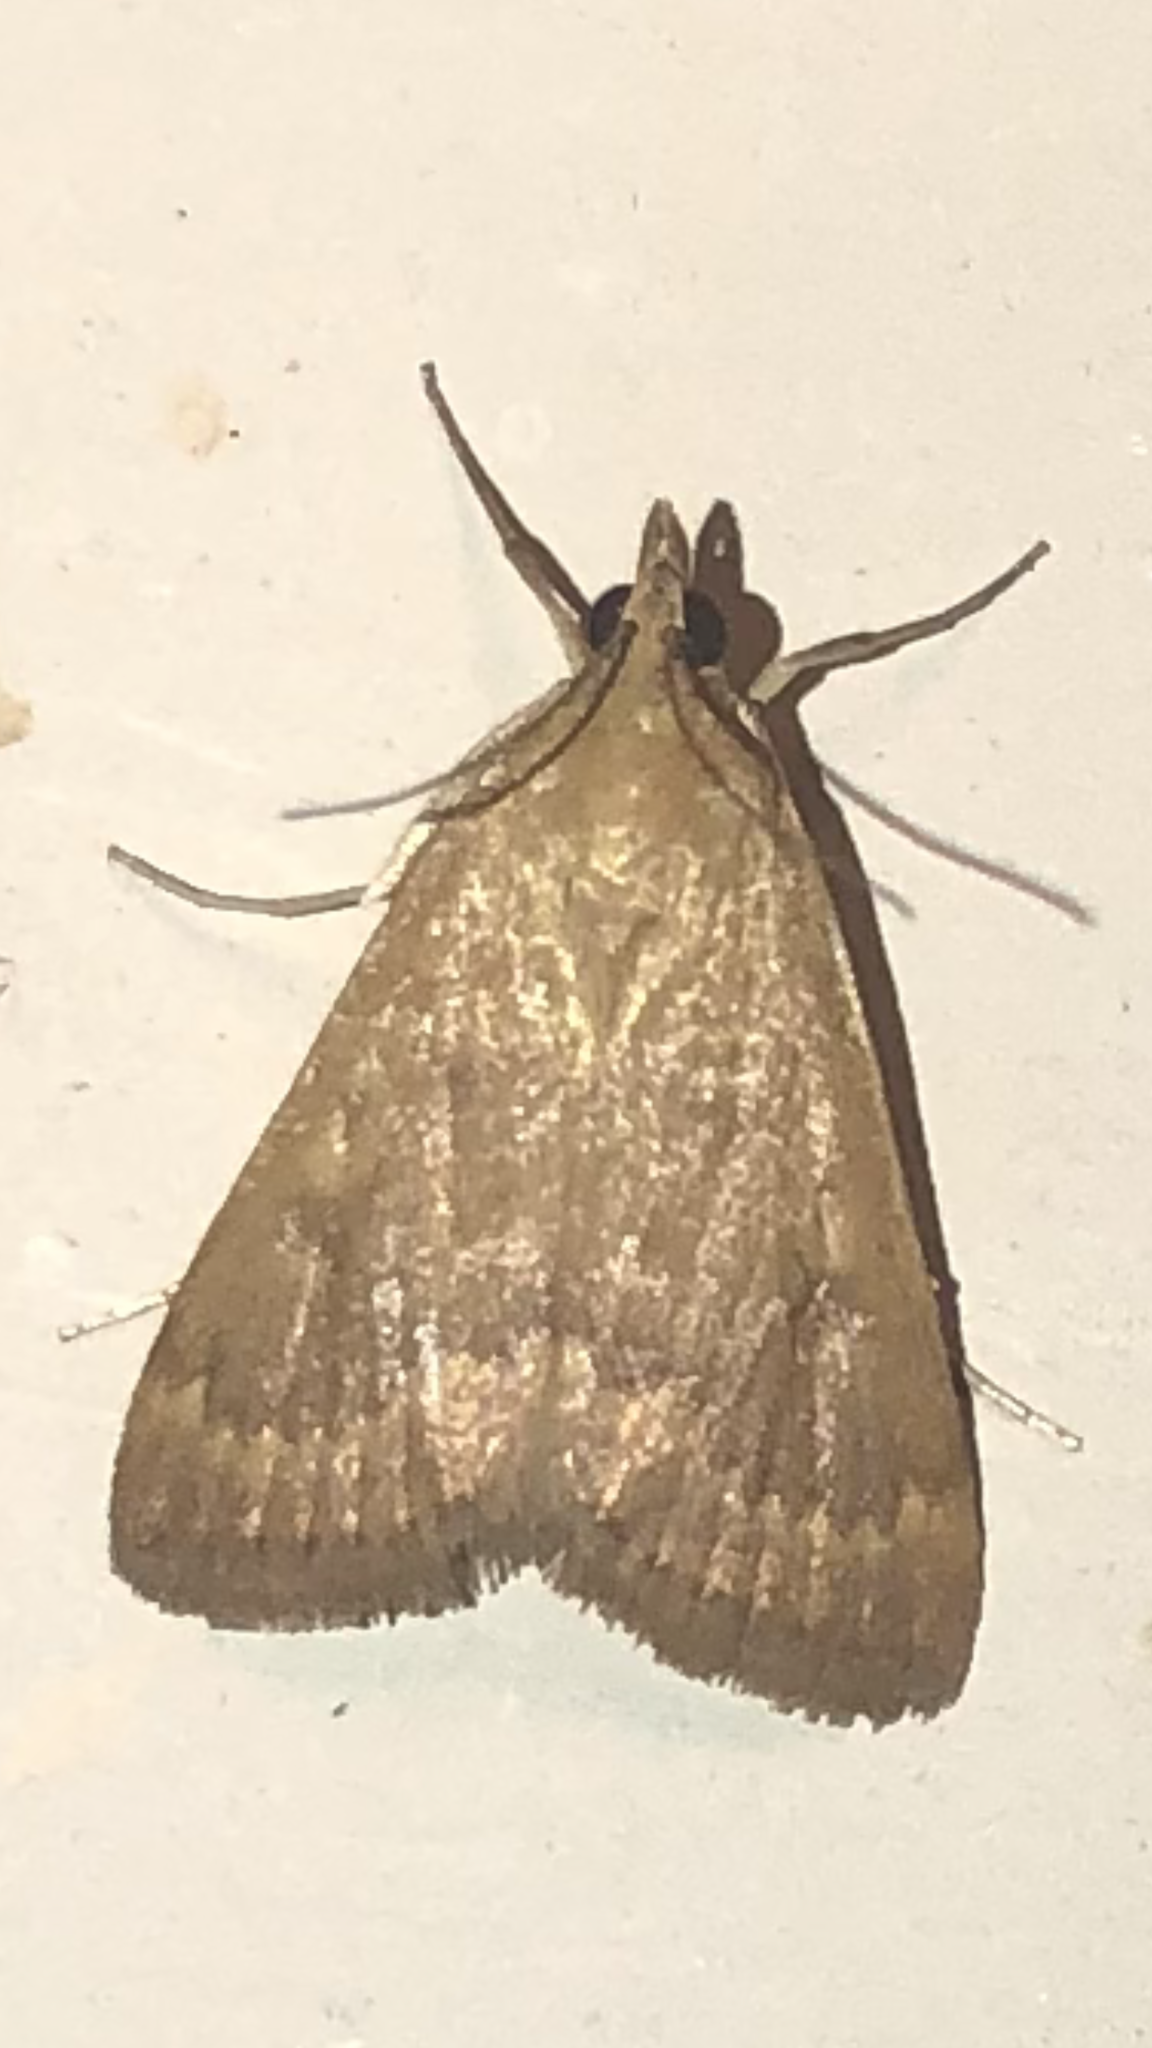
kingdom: Animalia
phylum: Arthropoda
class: Insecta
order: Lepidoptera
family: Crambidae
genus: Achyra
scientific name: Achyra rantalis
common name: Garden webworm
